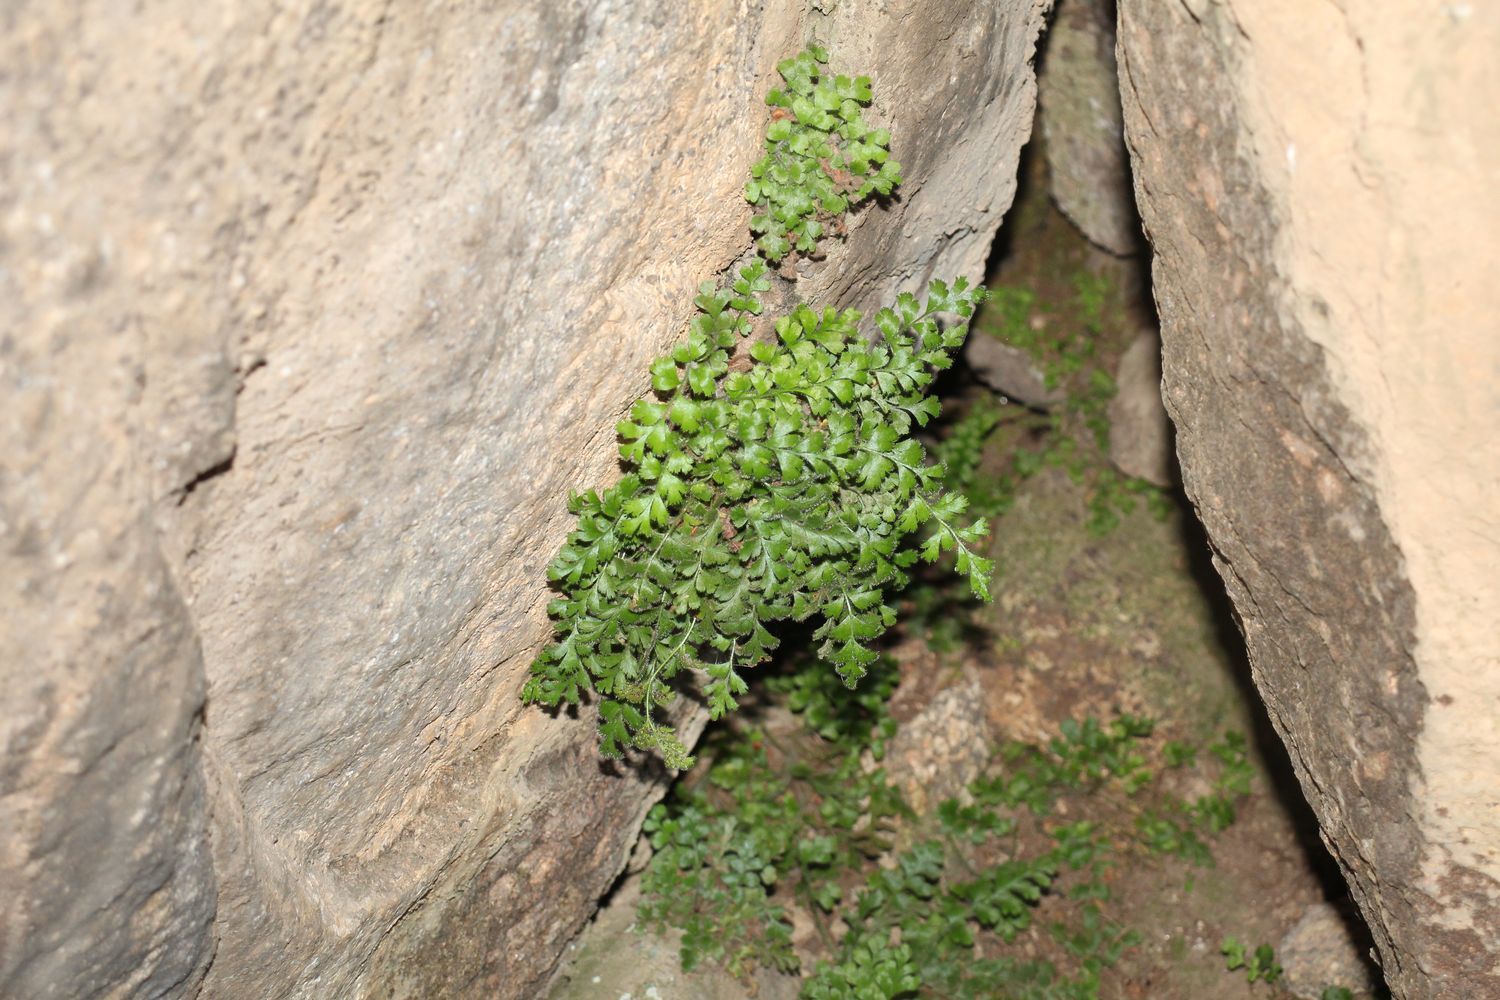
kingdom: Plantae
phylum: Tracheophyta
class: Polypodiopsida
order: Polypodiales
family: Aspleniaceae
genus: Asplenium
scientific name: Asplenium subglandulosum
